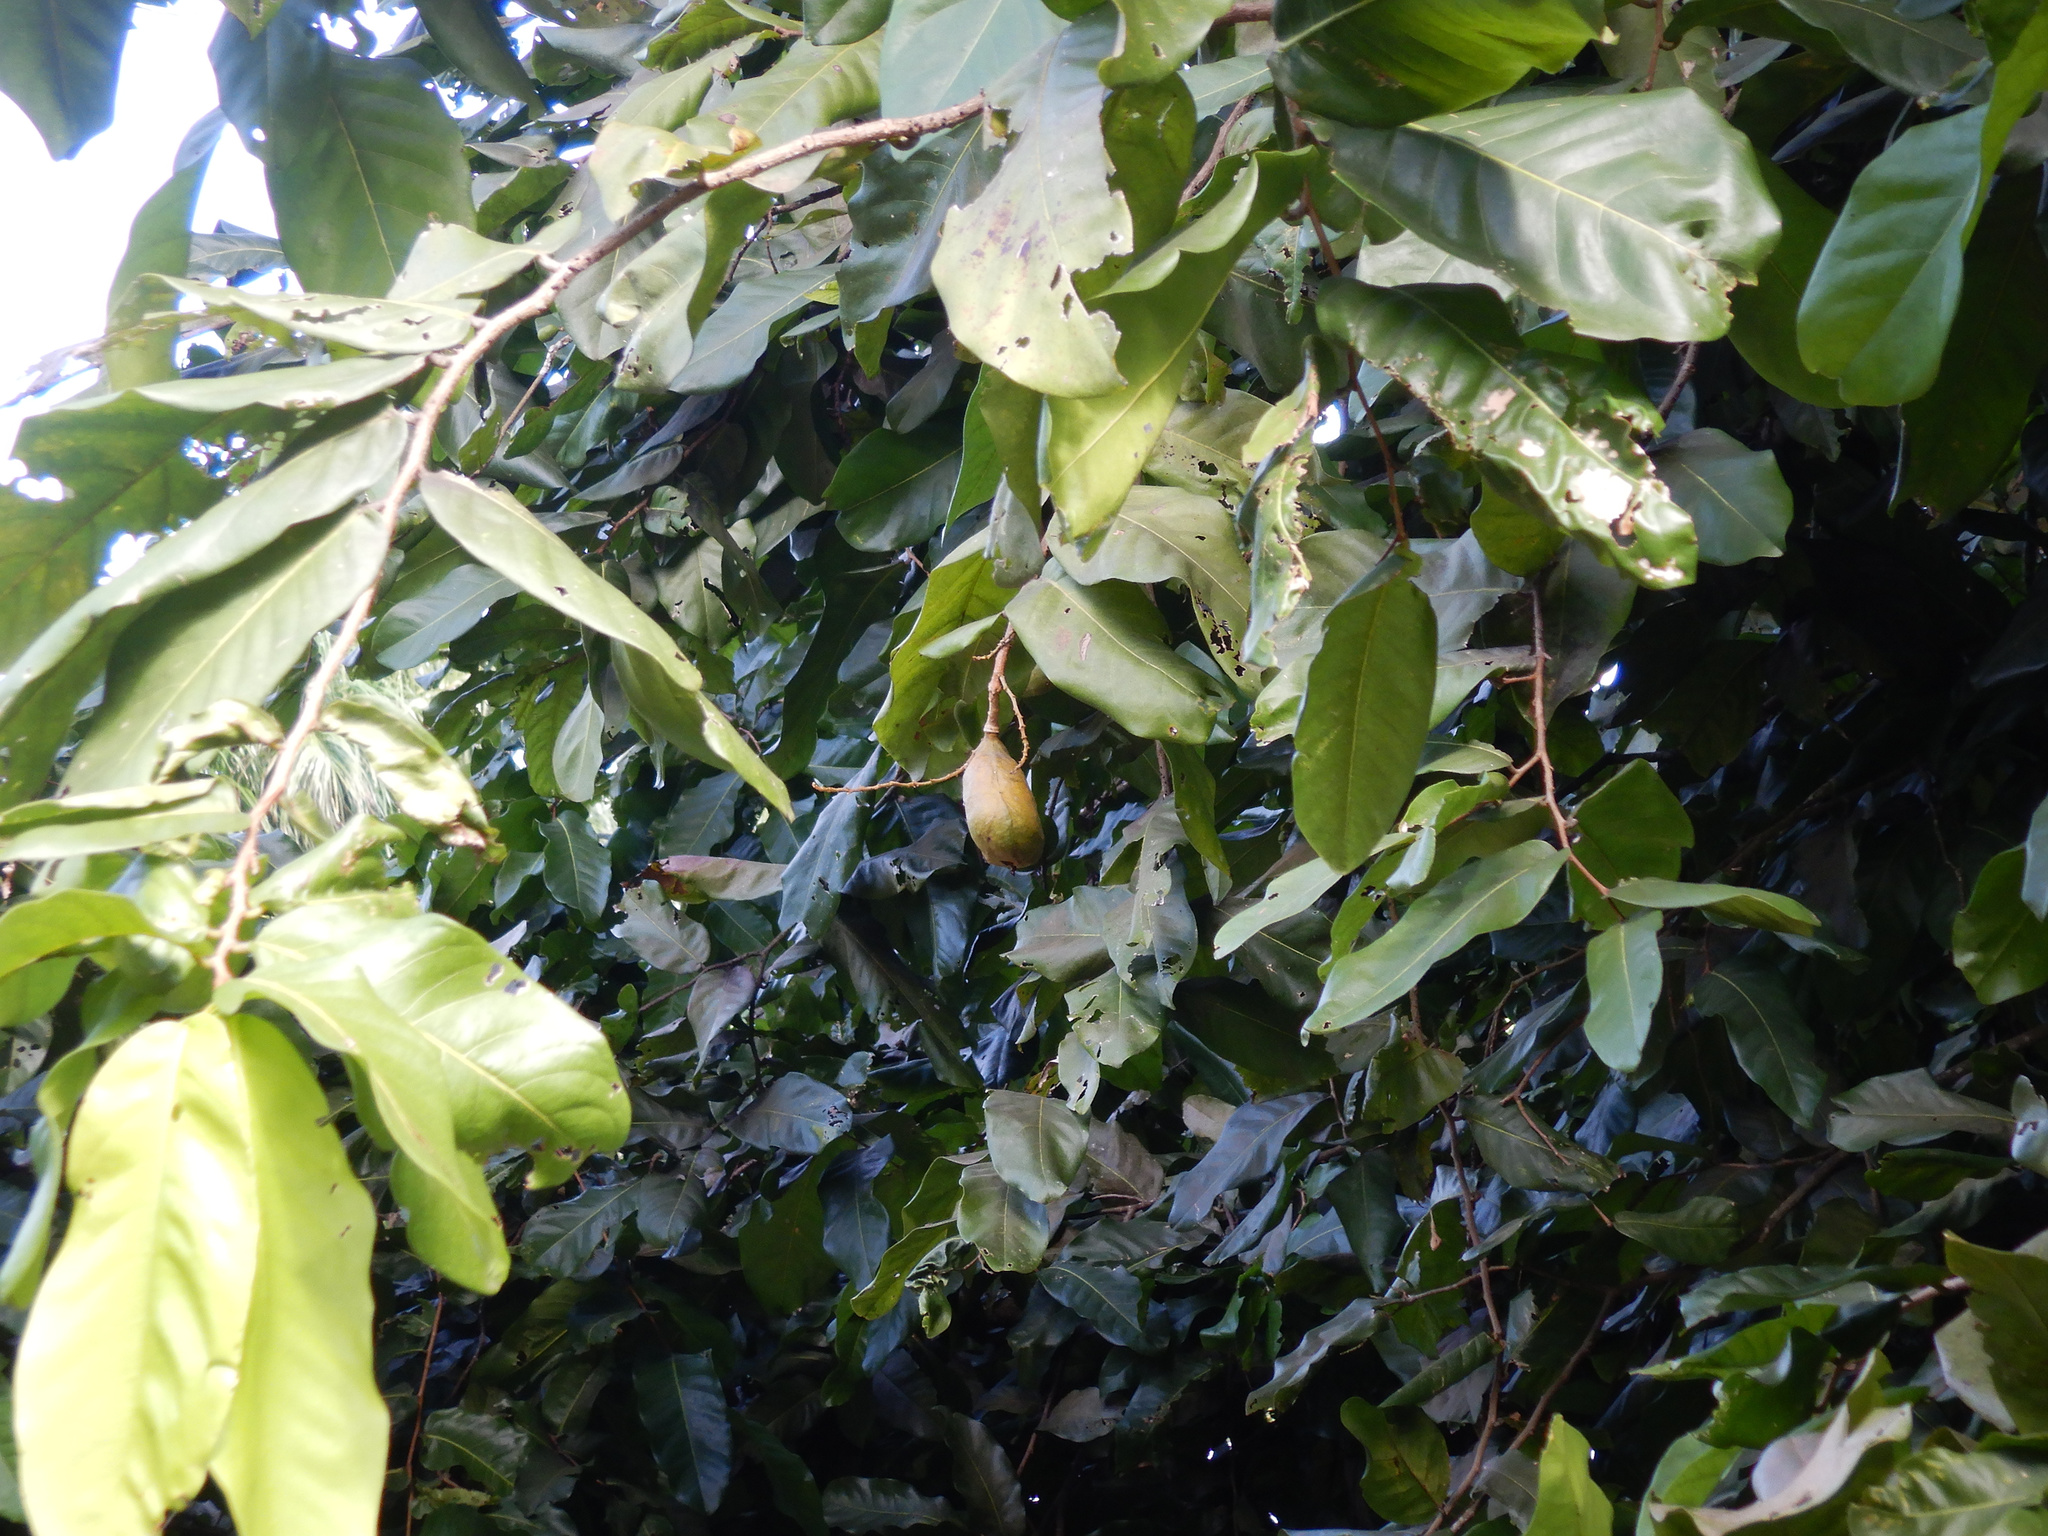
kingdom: Plantae
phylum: Tracheophyta
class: Magnoliopsida
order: Fabales
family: Fabaceae
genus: Inocarpus
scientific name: Inocarpus fagifer
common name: Polynesian chestnut
